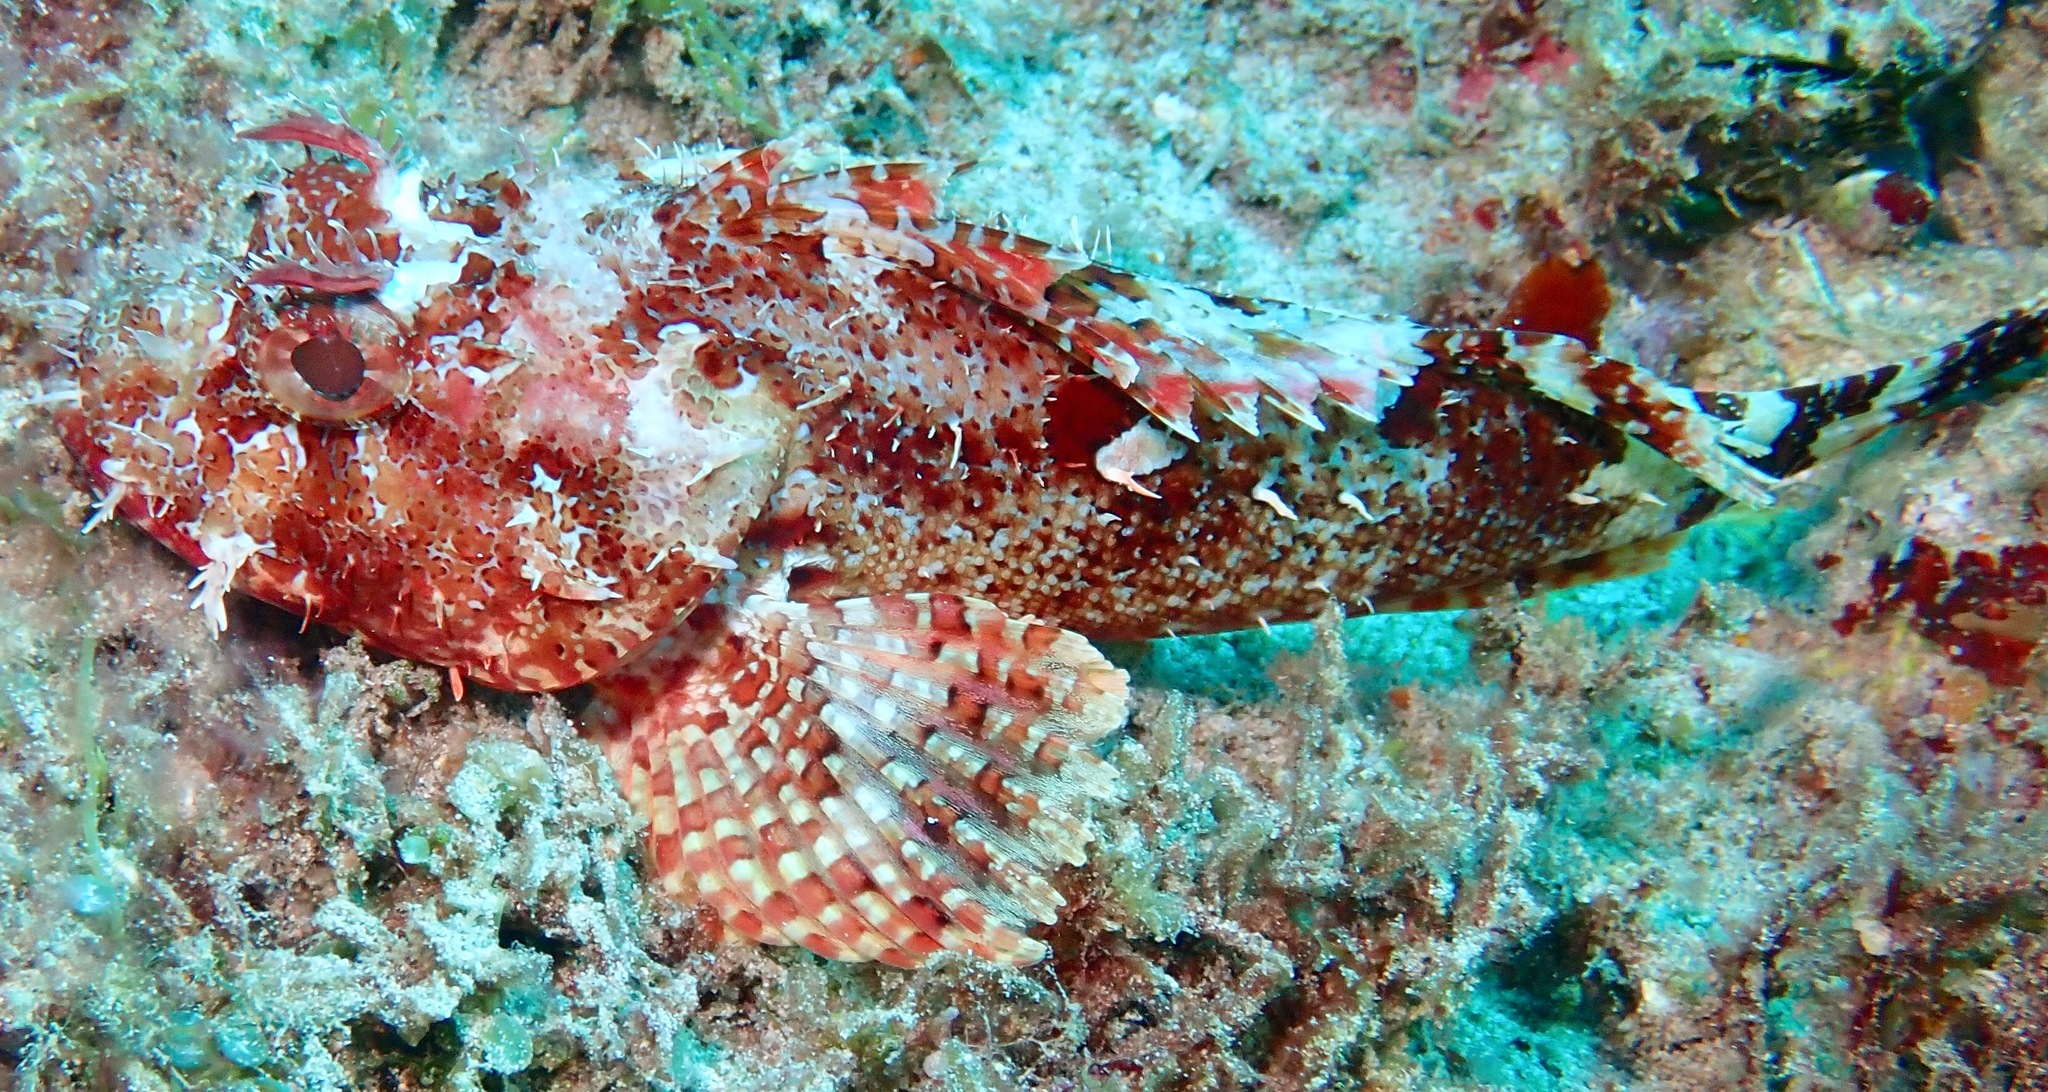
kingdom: Animalia
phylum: Chordata
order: Scorpaeniformes
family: Scorpaenidae
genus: Scorpaena
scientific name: Scorpaena cardinalis
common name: Cardinal scorpionfish
